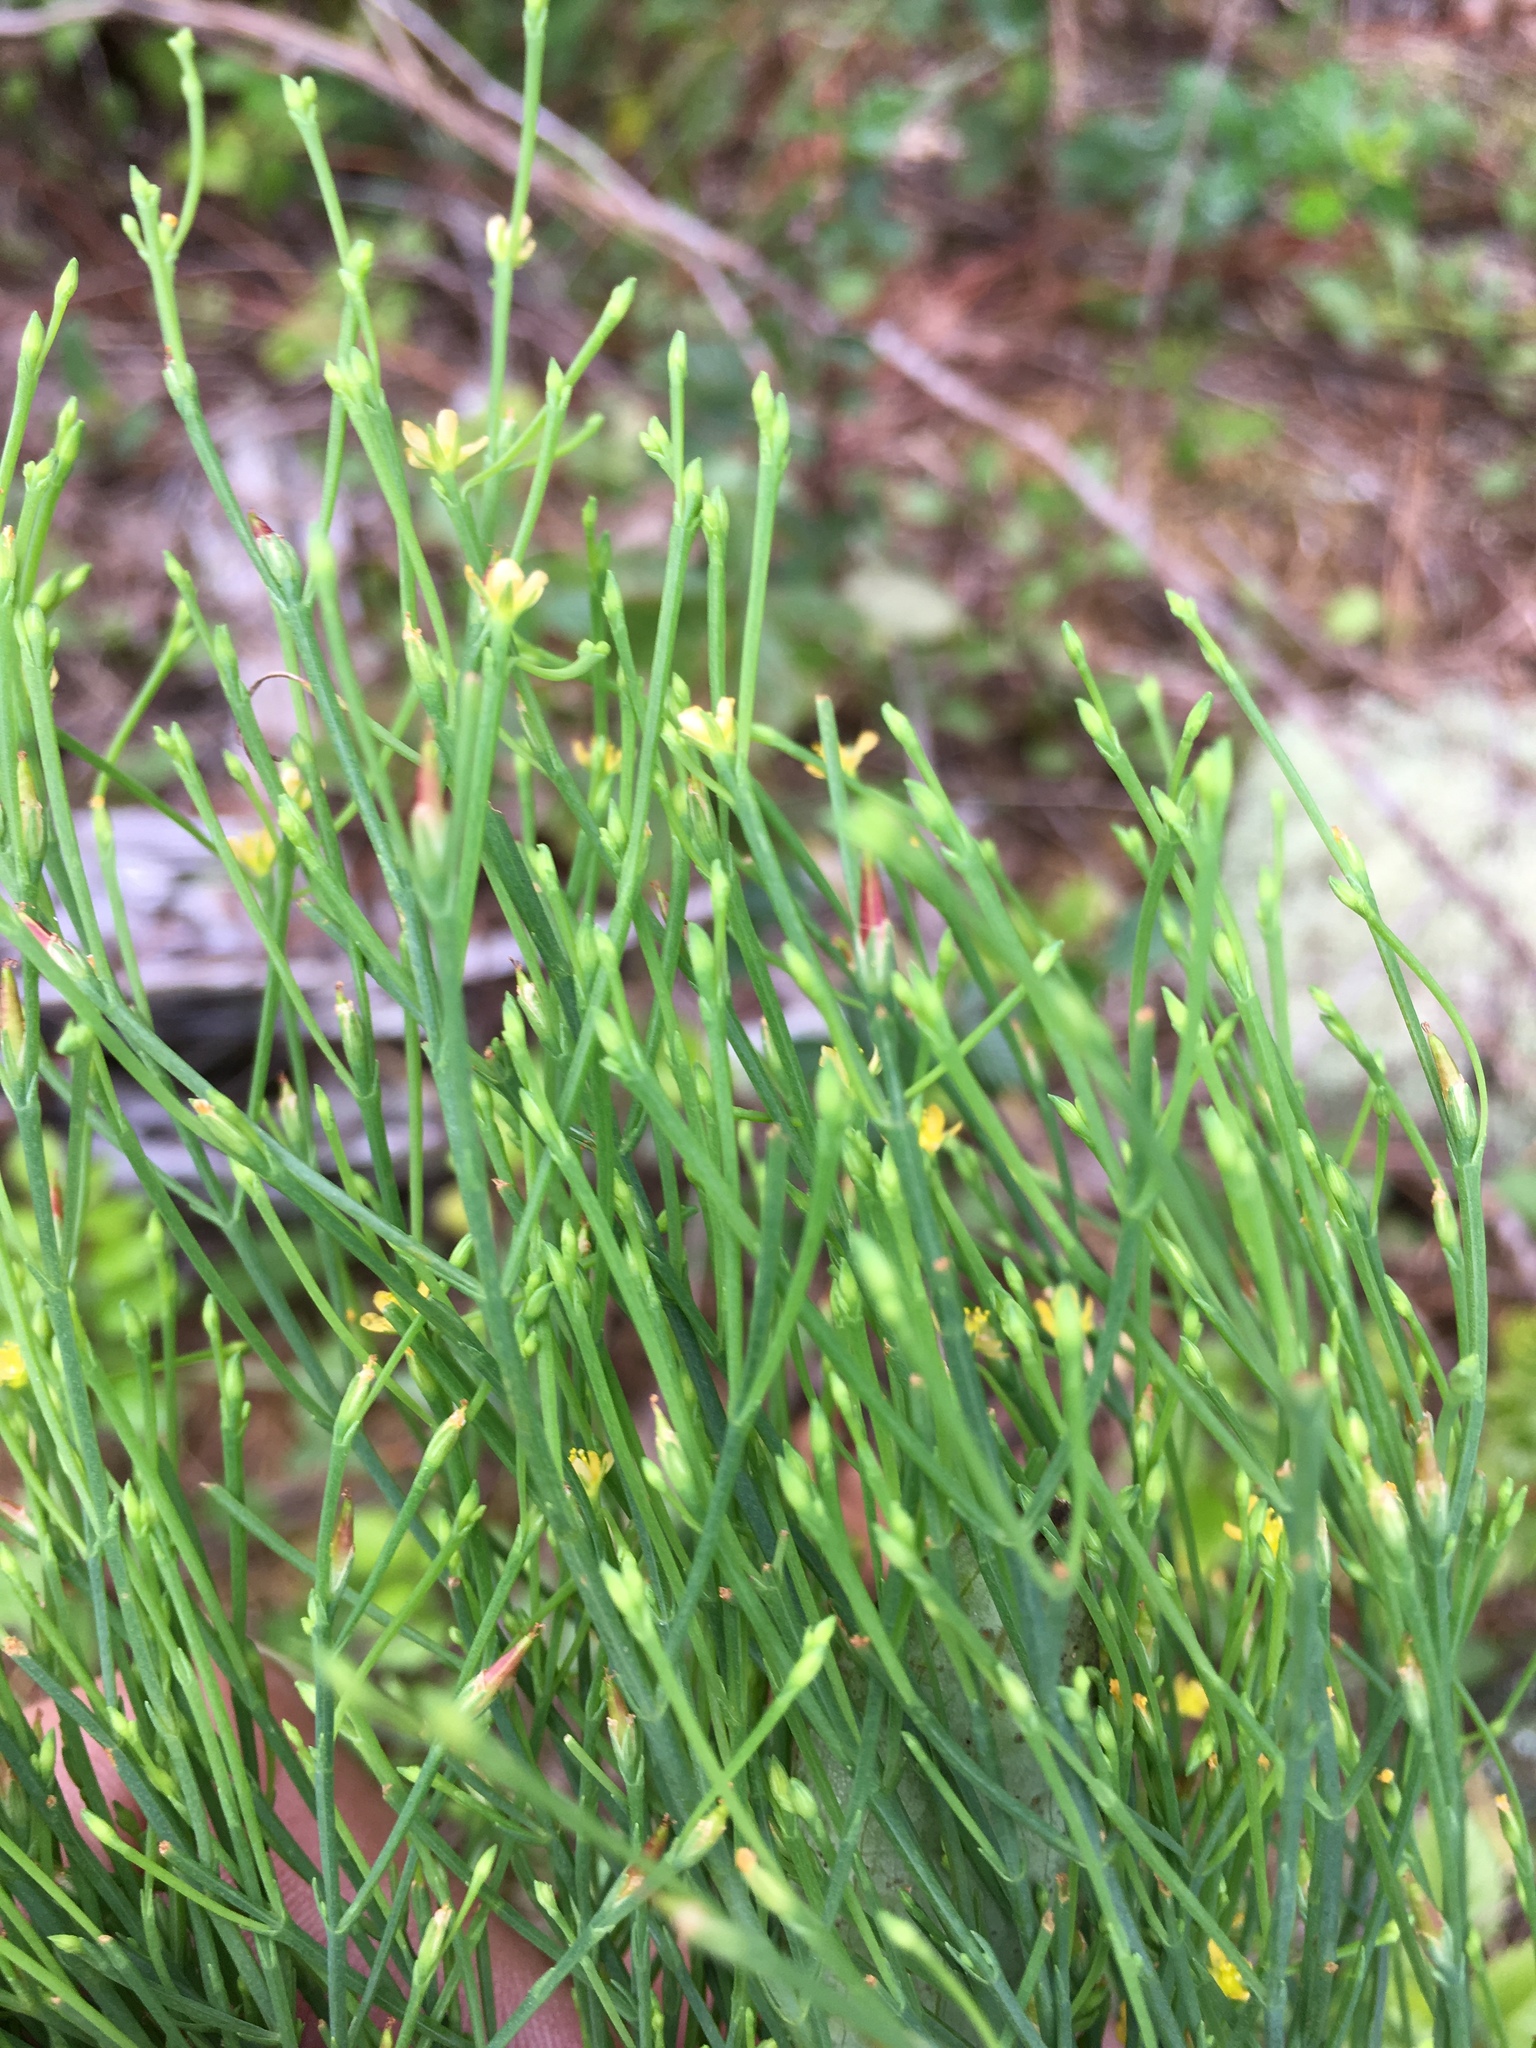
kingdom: Plantae
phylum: Tracheophyta
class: Magnoliopsida
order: Malpighiales
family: Hypericaceae
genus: Hypericum
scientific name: Hypericum gentianoides
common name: Gentian-leaved st. john's-wort
